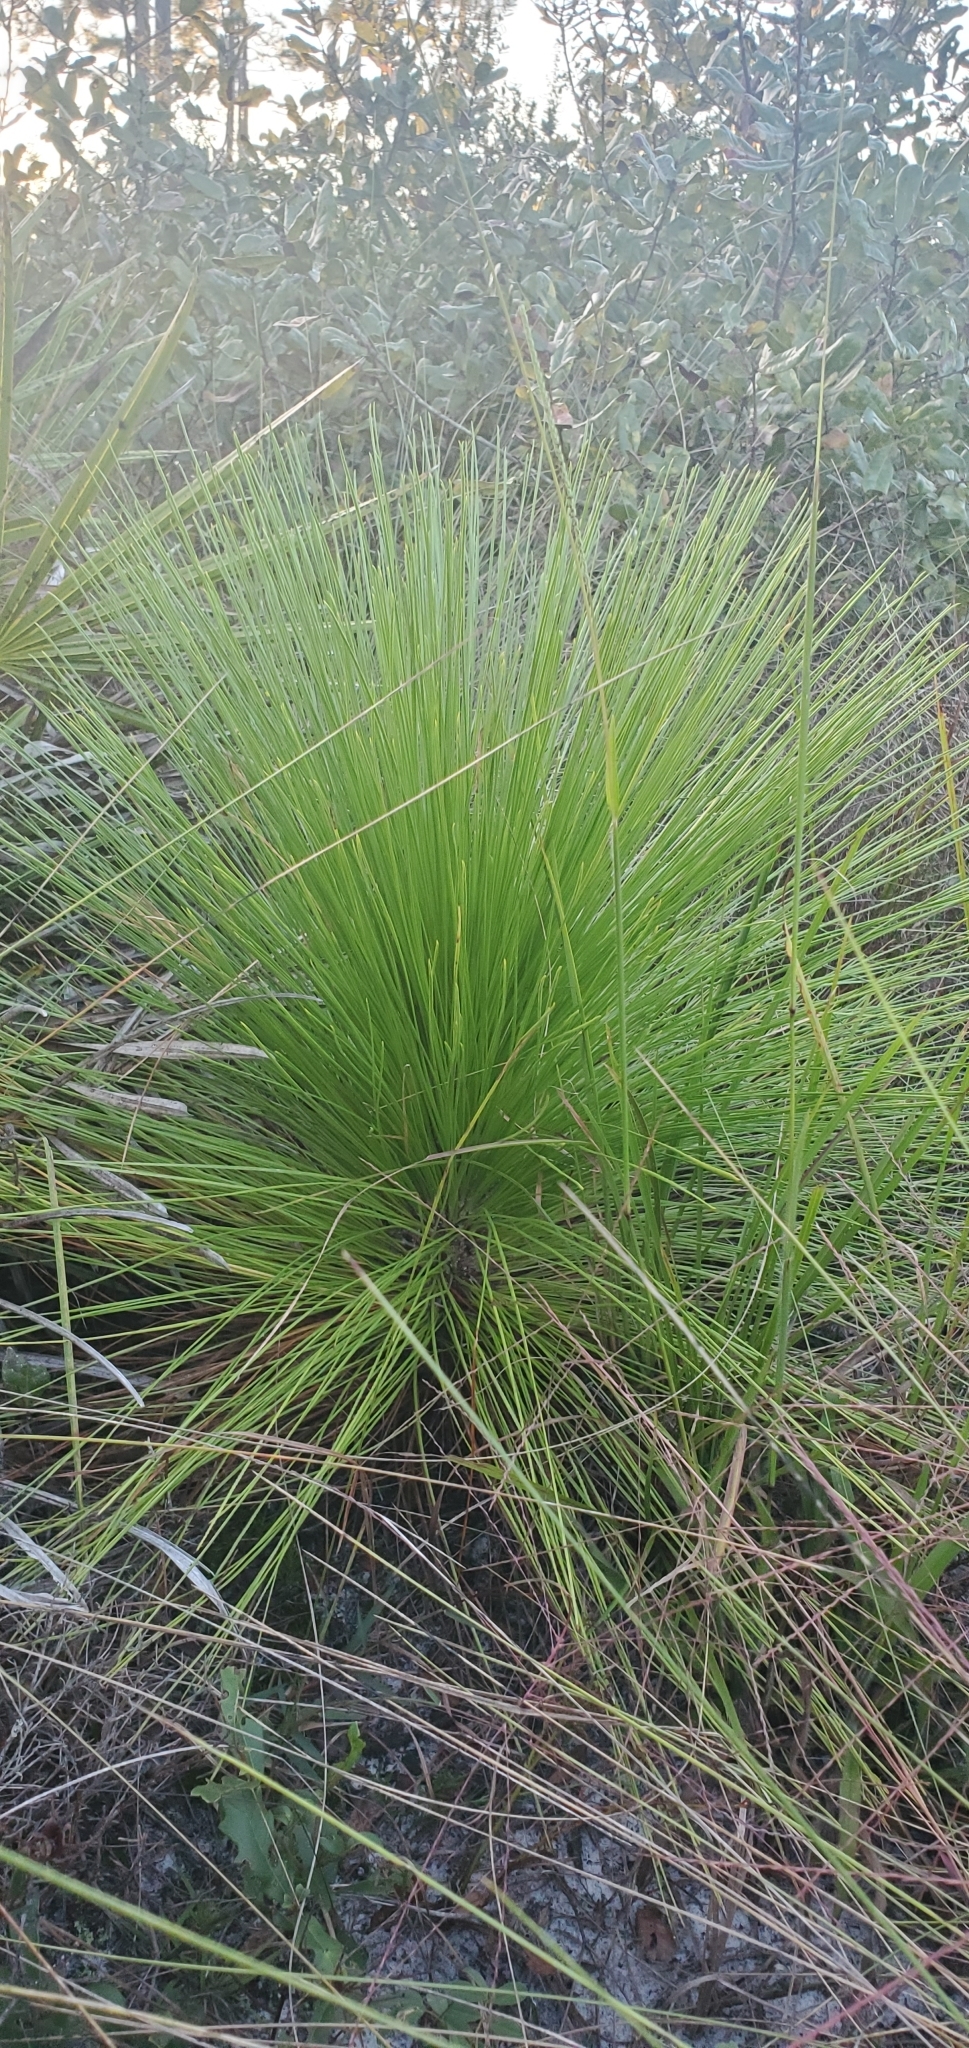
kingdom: Plantae
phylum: Tracheophyta
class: Pinopsida
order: Pinales
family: Pinaceae
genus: Pinus
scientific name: Pinus palustris
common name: Longleaf pine
